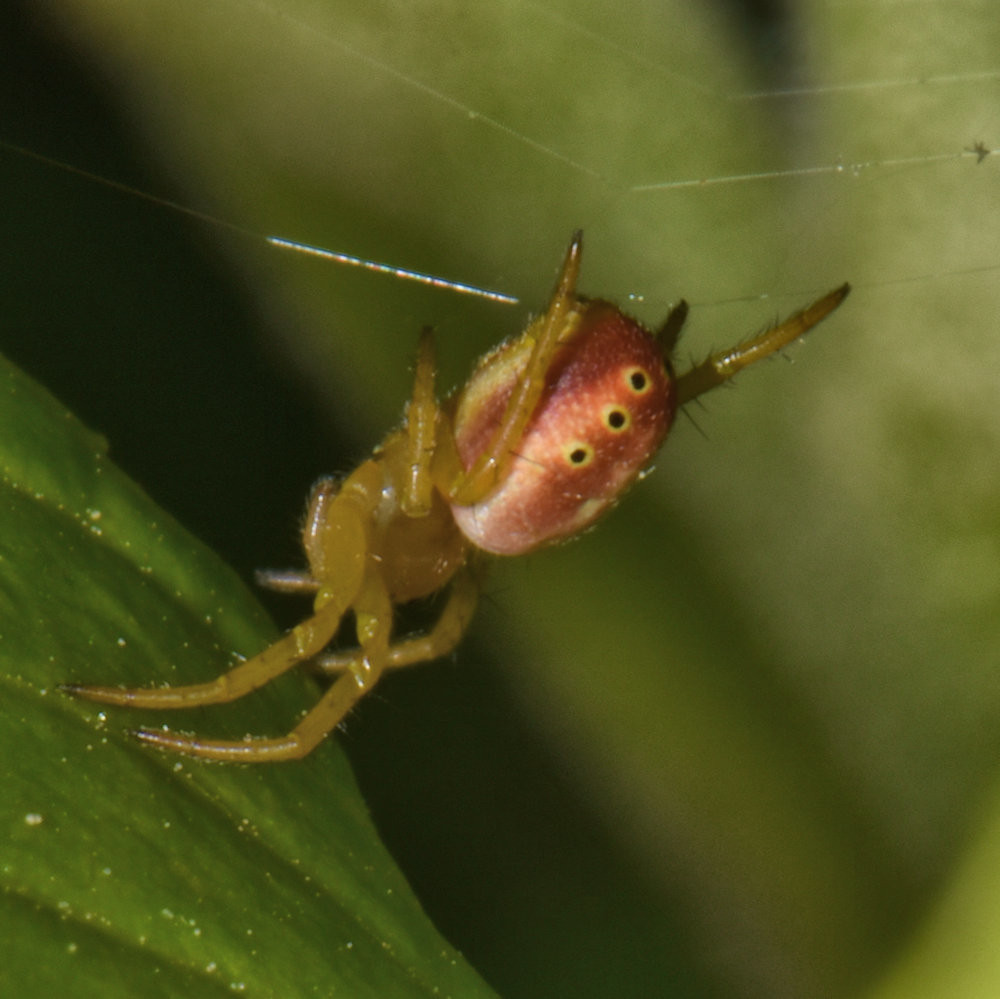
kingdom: Animalia
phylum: Arthropoda
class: Arachnida
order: Araneae
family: Araneidae
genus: Araniella
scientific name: Araniella displicata
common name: Sixspotted orb weaver
